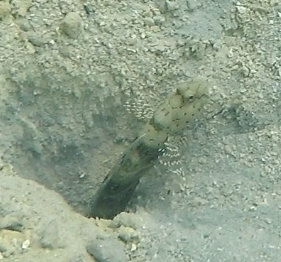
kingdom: Animalia
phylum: Chordata
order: Perciformes
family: Gobiidae
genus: Cryptocentrus
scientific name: Cryptocentrus caeruleopunctatus
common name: Blue-and-red-spotted goby
